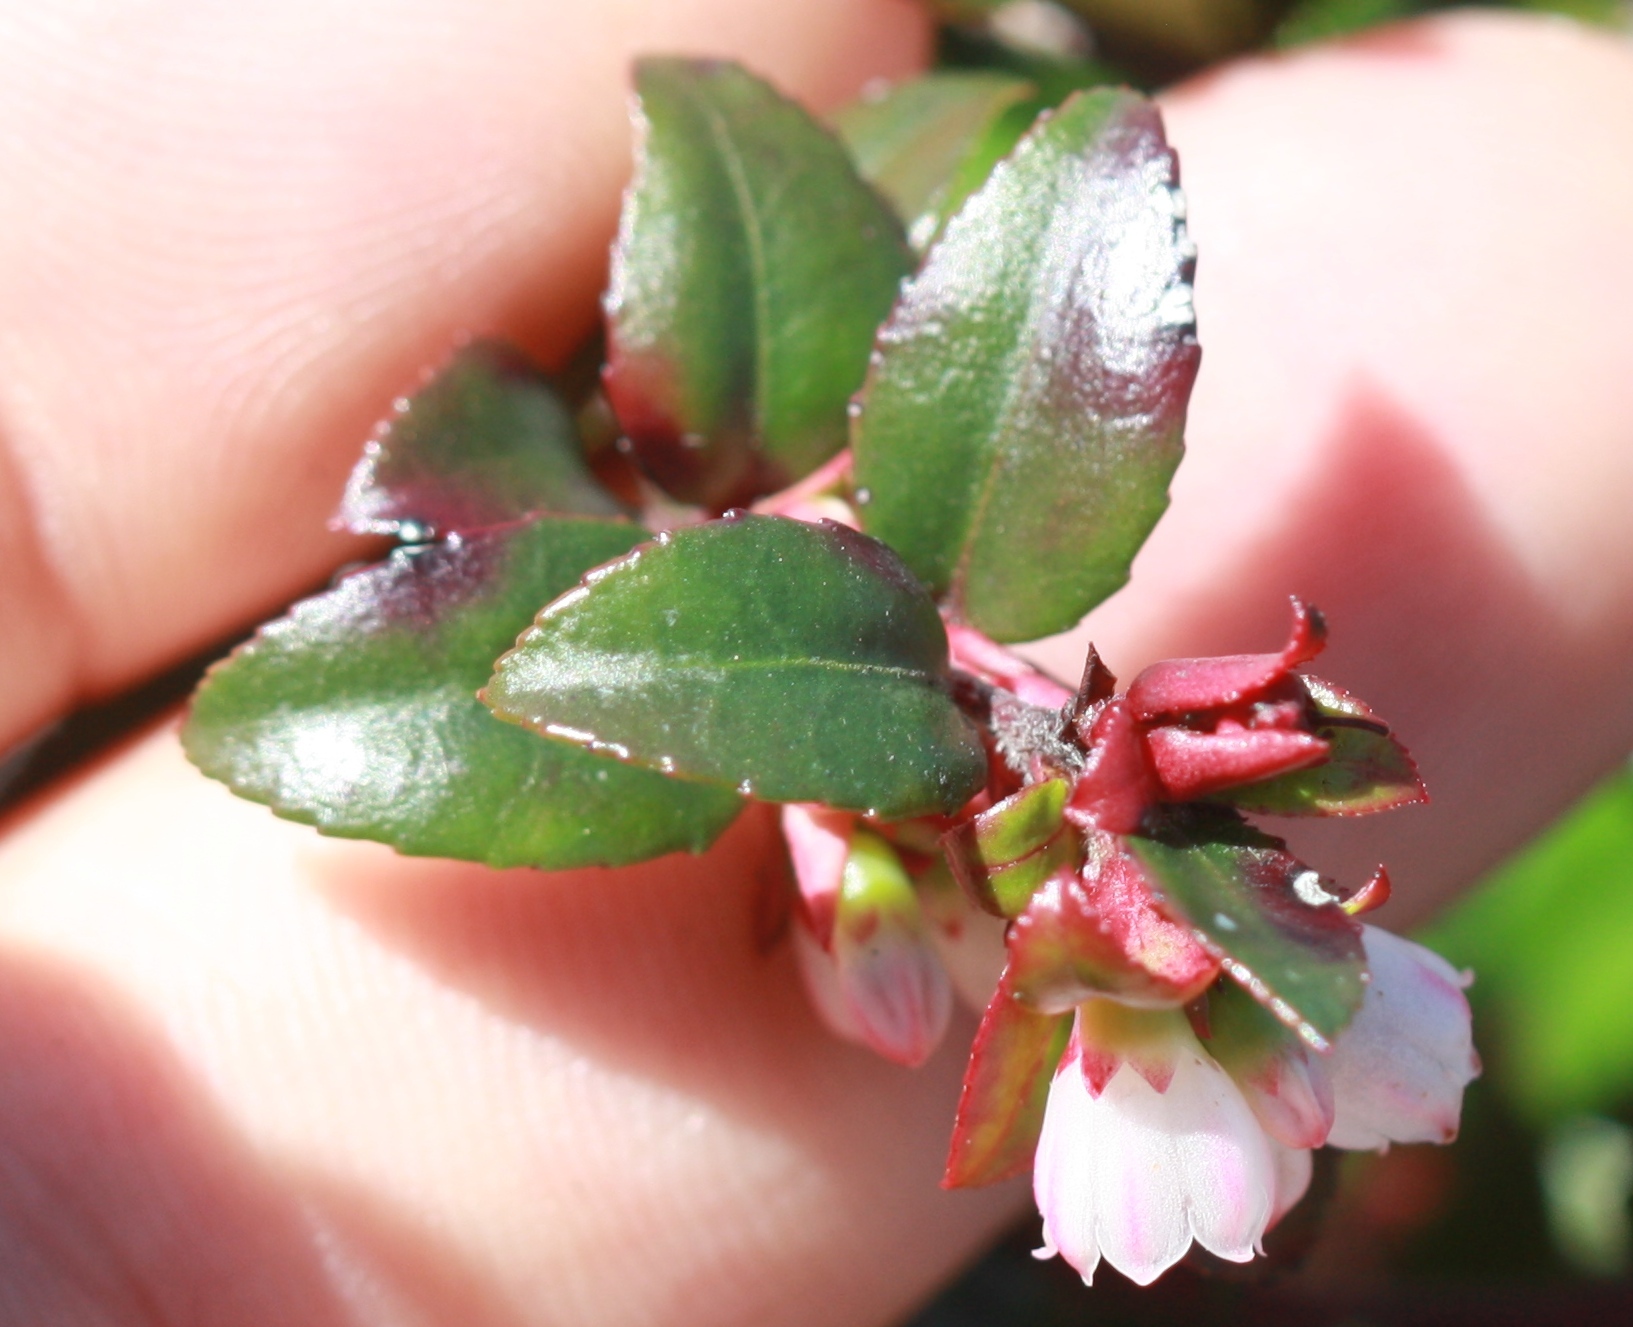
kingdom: Plantae
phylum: Tracheophyta
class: Magnoliopsida
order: Ericales
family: Ericaceae
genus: Vaccinium
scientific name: Vaccinium ovatum
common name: California-huckleberry
